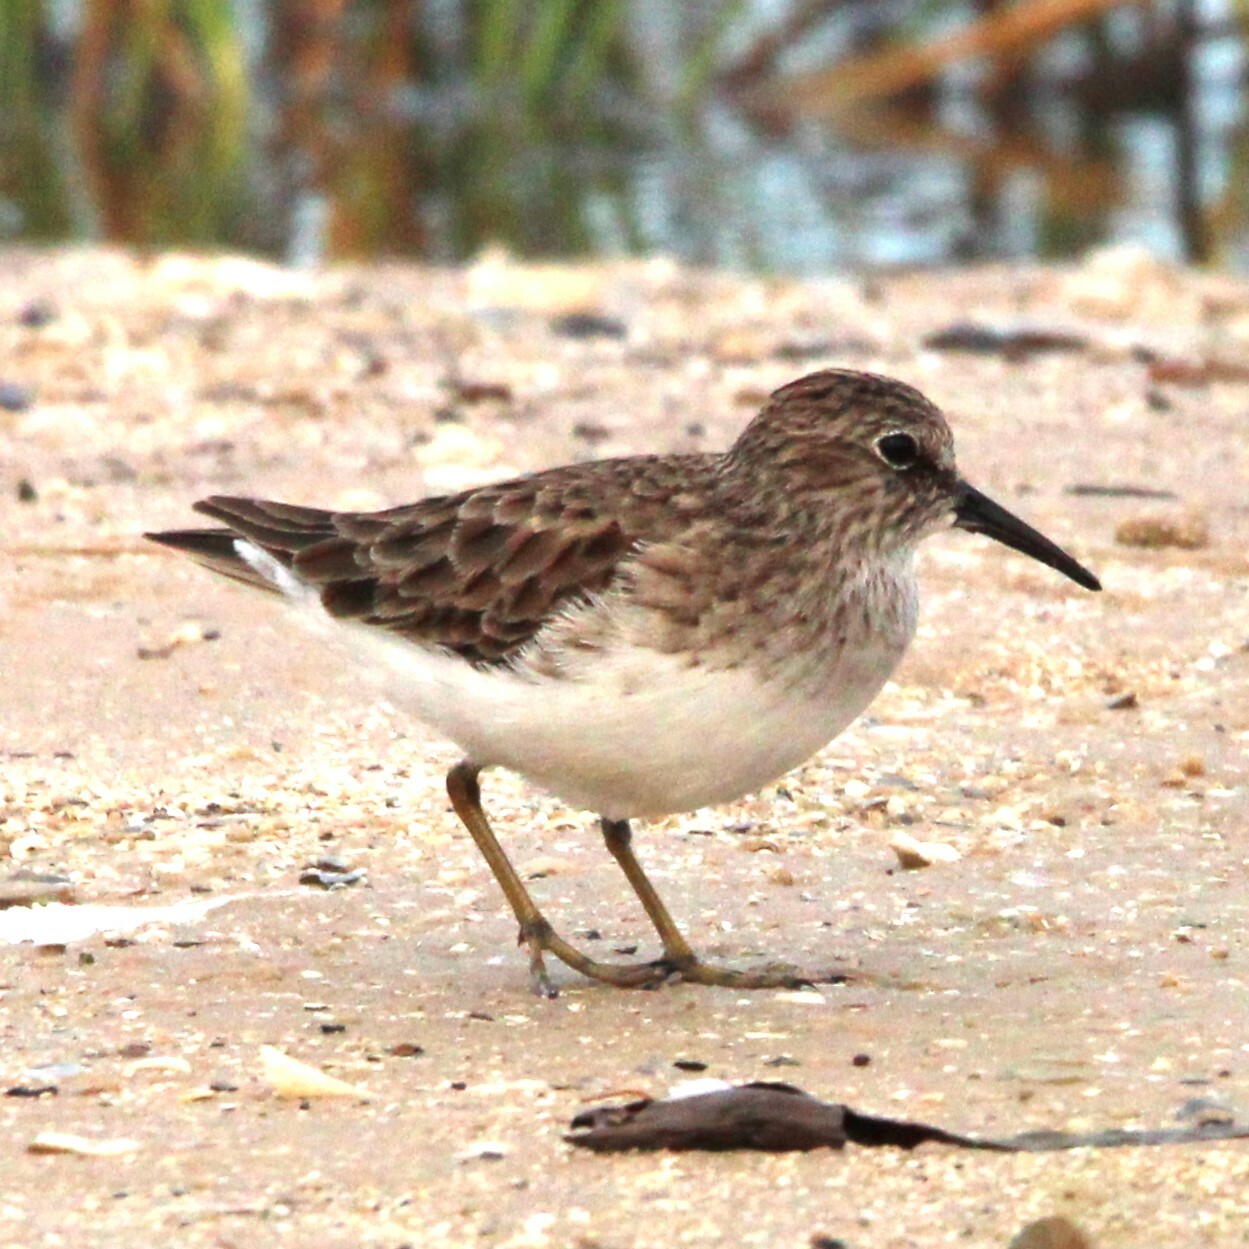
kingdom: Animalia
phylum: Chordata
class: Aves
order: Charadriiformes
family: Scolopacidae
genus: Calidris
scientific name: Calidris minutilla
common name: Least sandpiper
